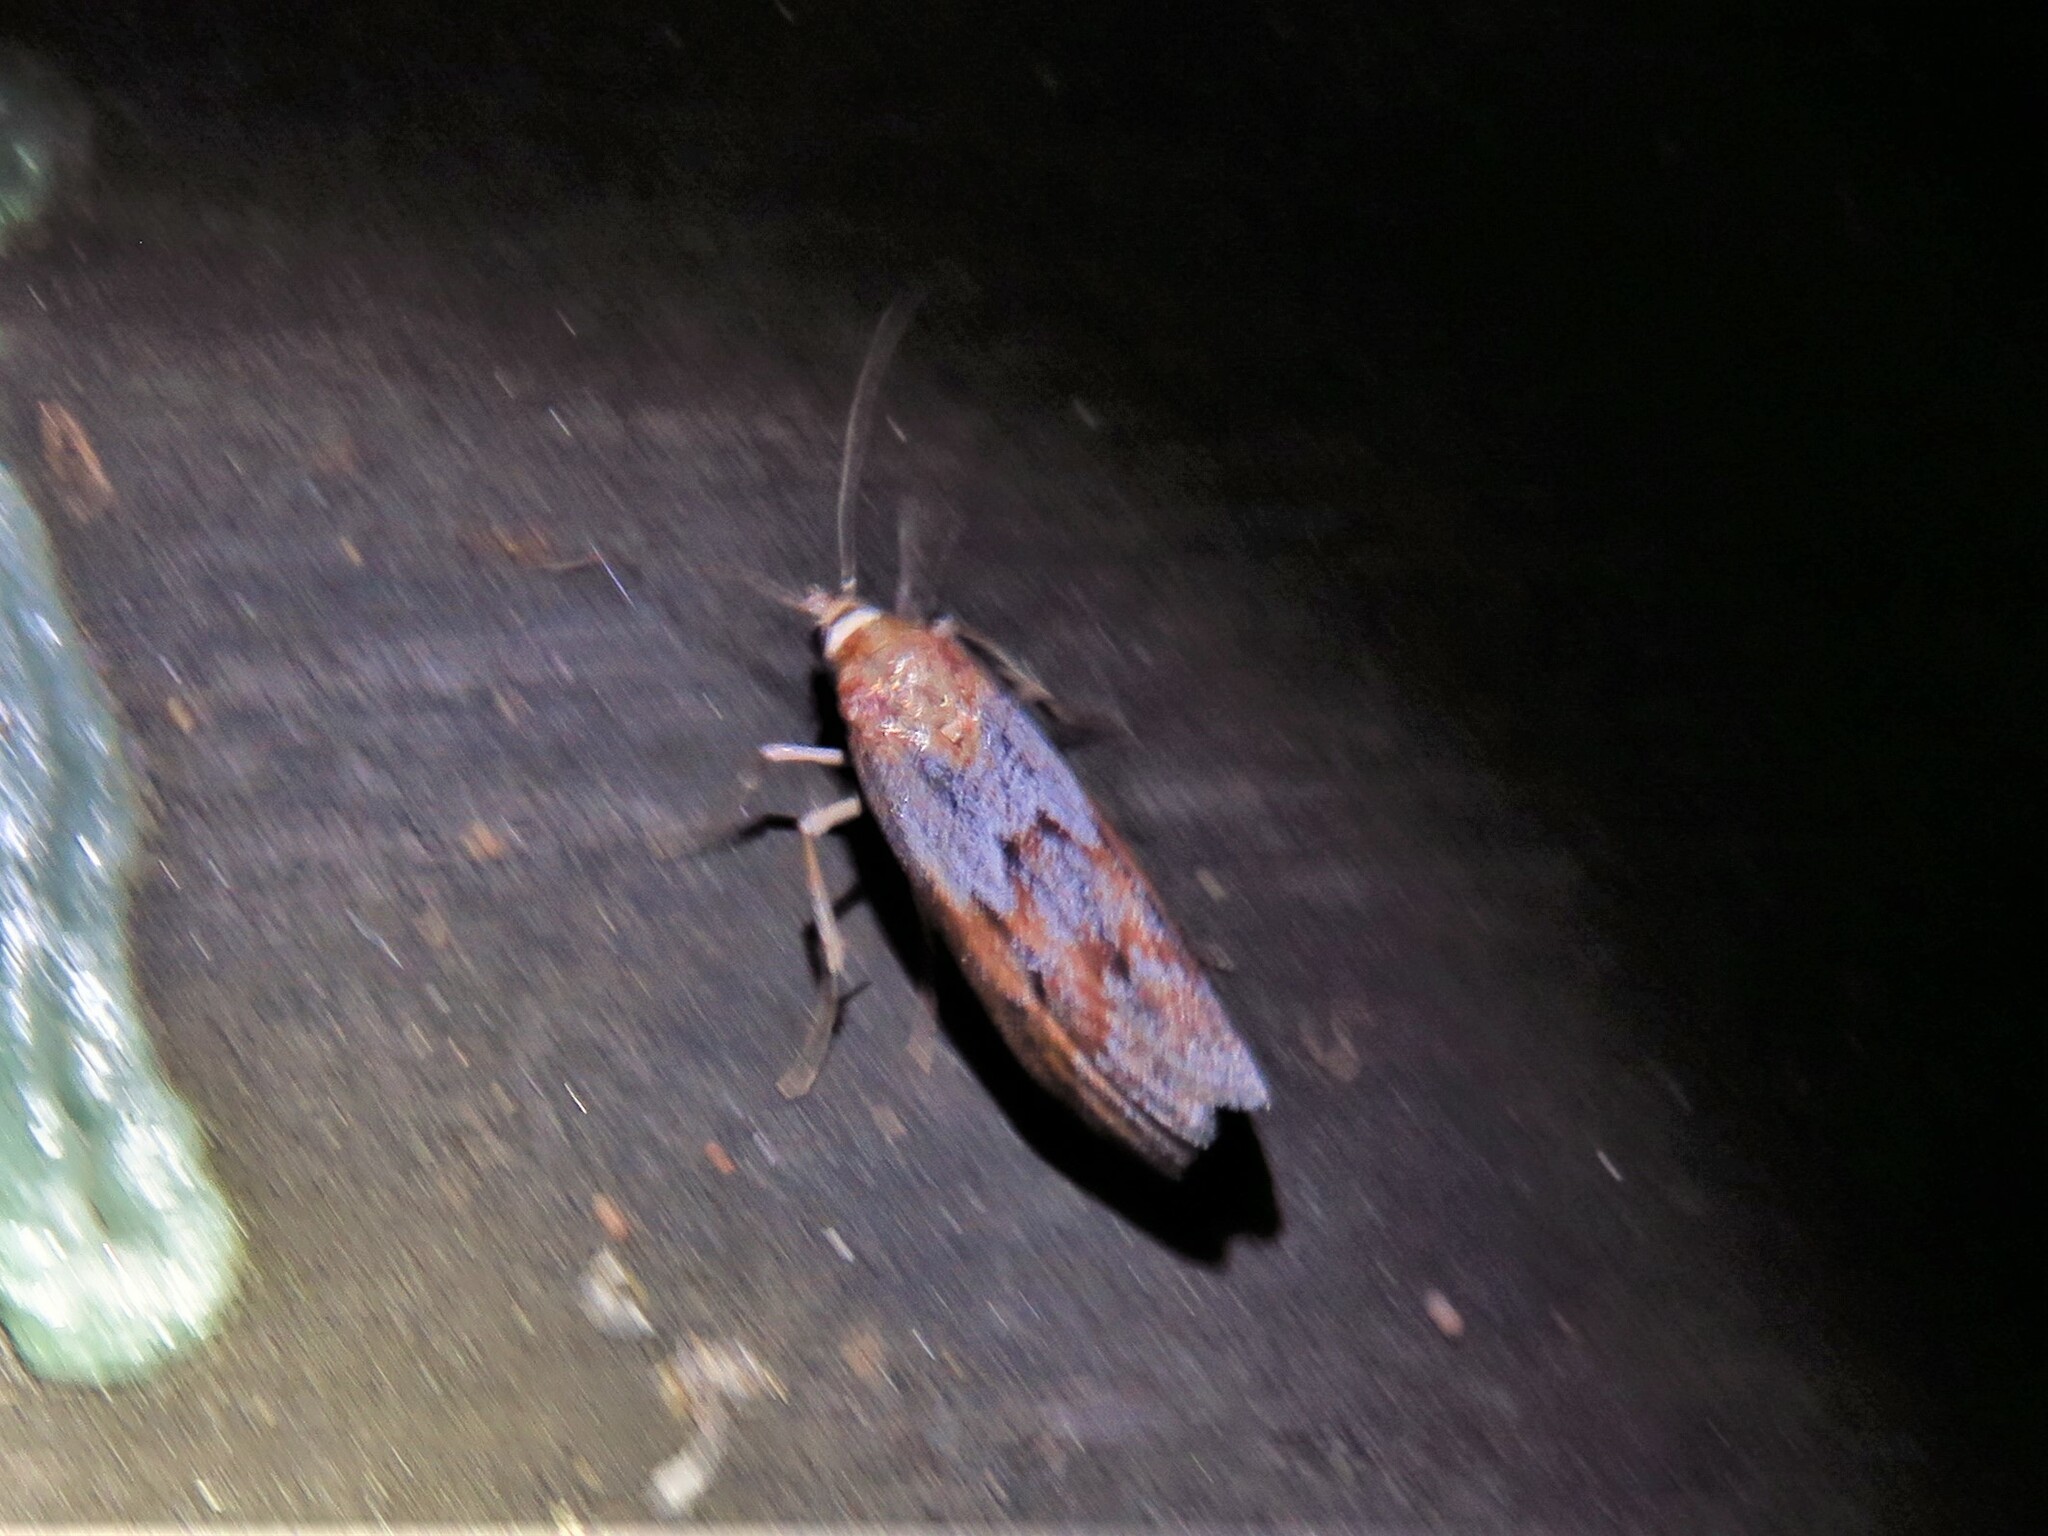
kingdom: Animalia
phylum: Arthropoda
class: Insecta
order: Lepidoptera
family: Pyralidae
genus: Selagia
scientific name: Selagia spadicella
